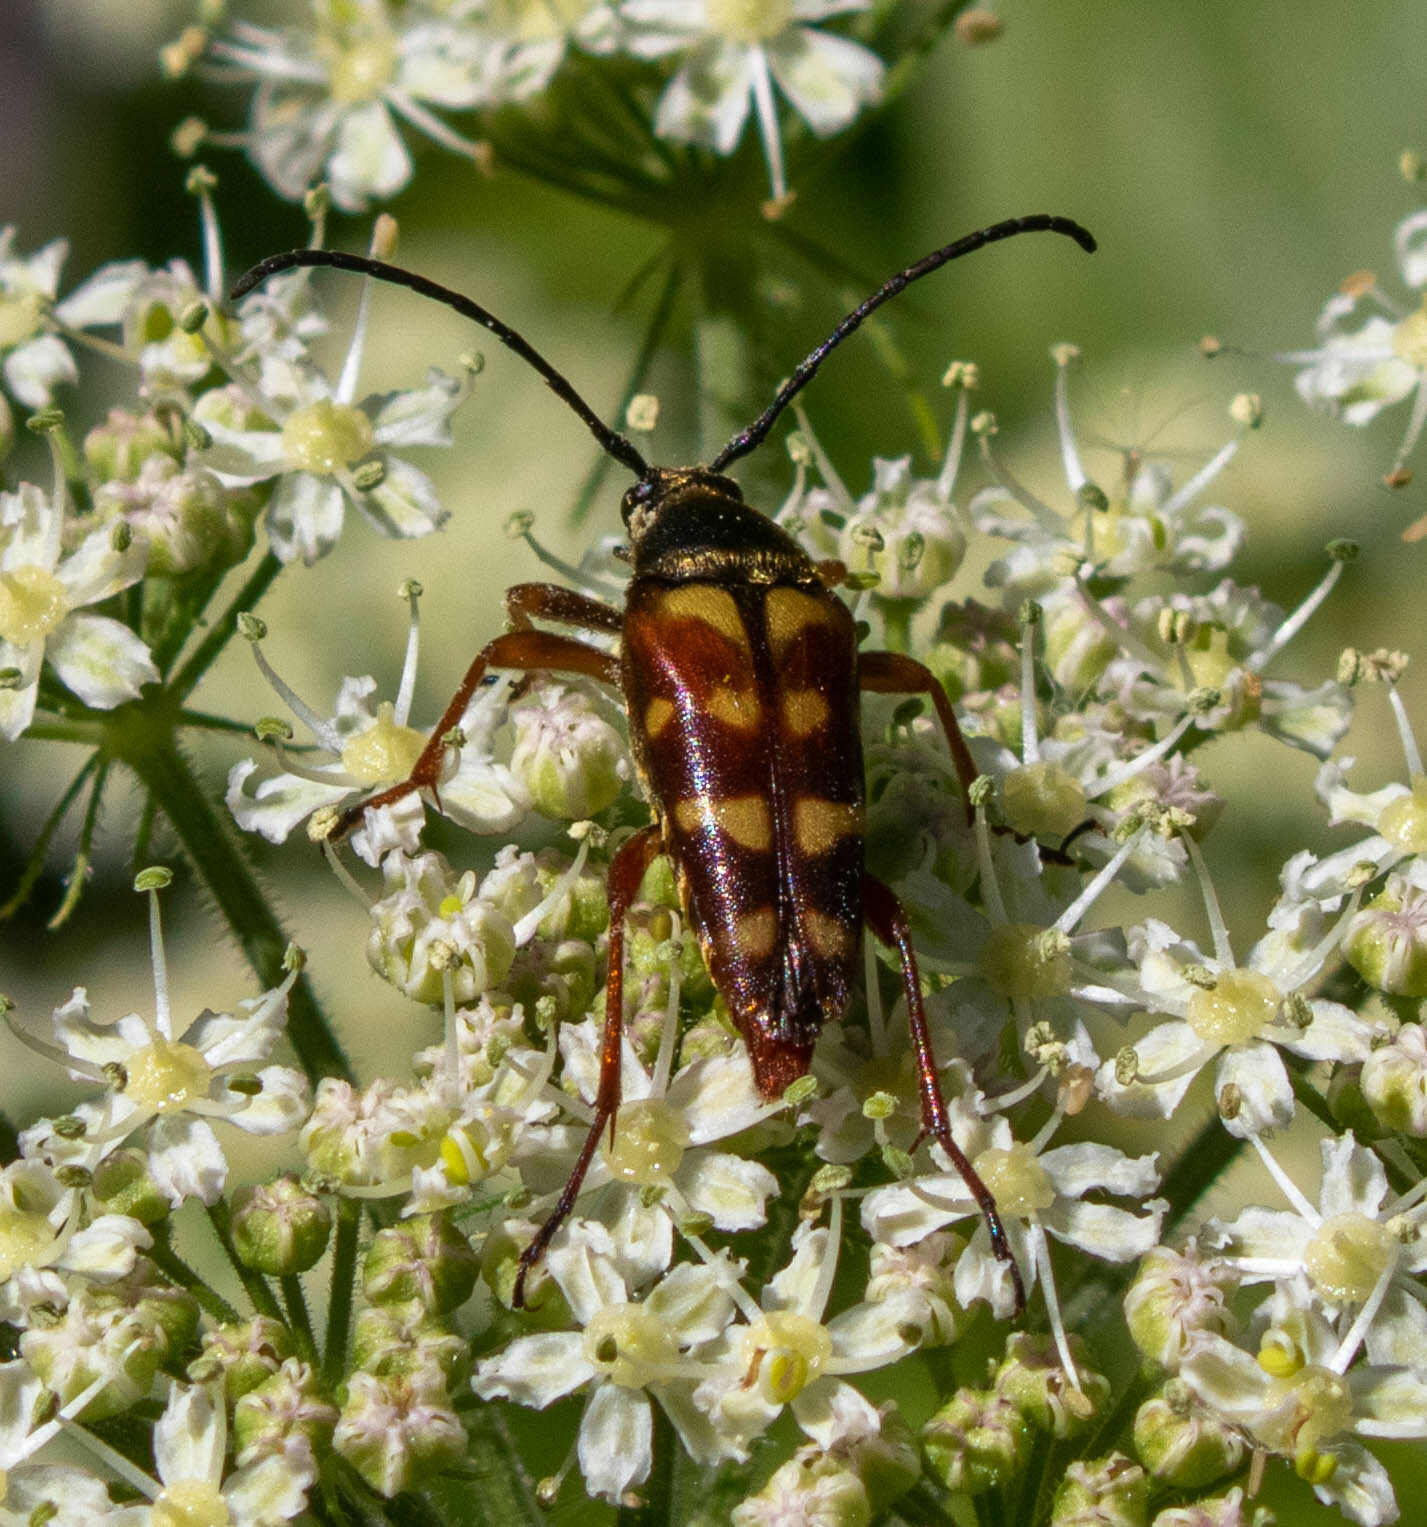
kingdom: Animalia
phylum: Arthropoda
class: Insecta
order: Coleoptera
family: Cerambycidae
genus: Typocerus
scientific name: Typocerus velutinus
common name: Banded longhorn beetle
